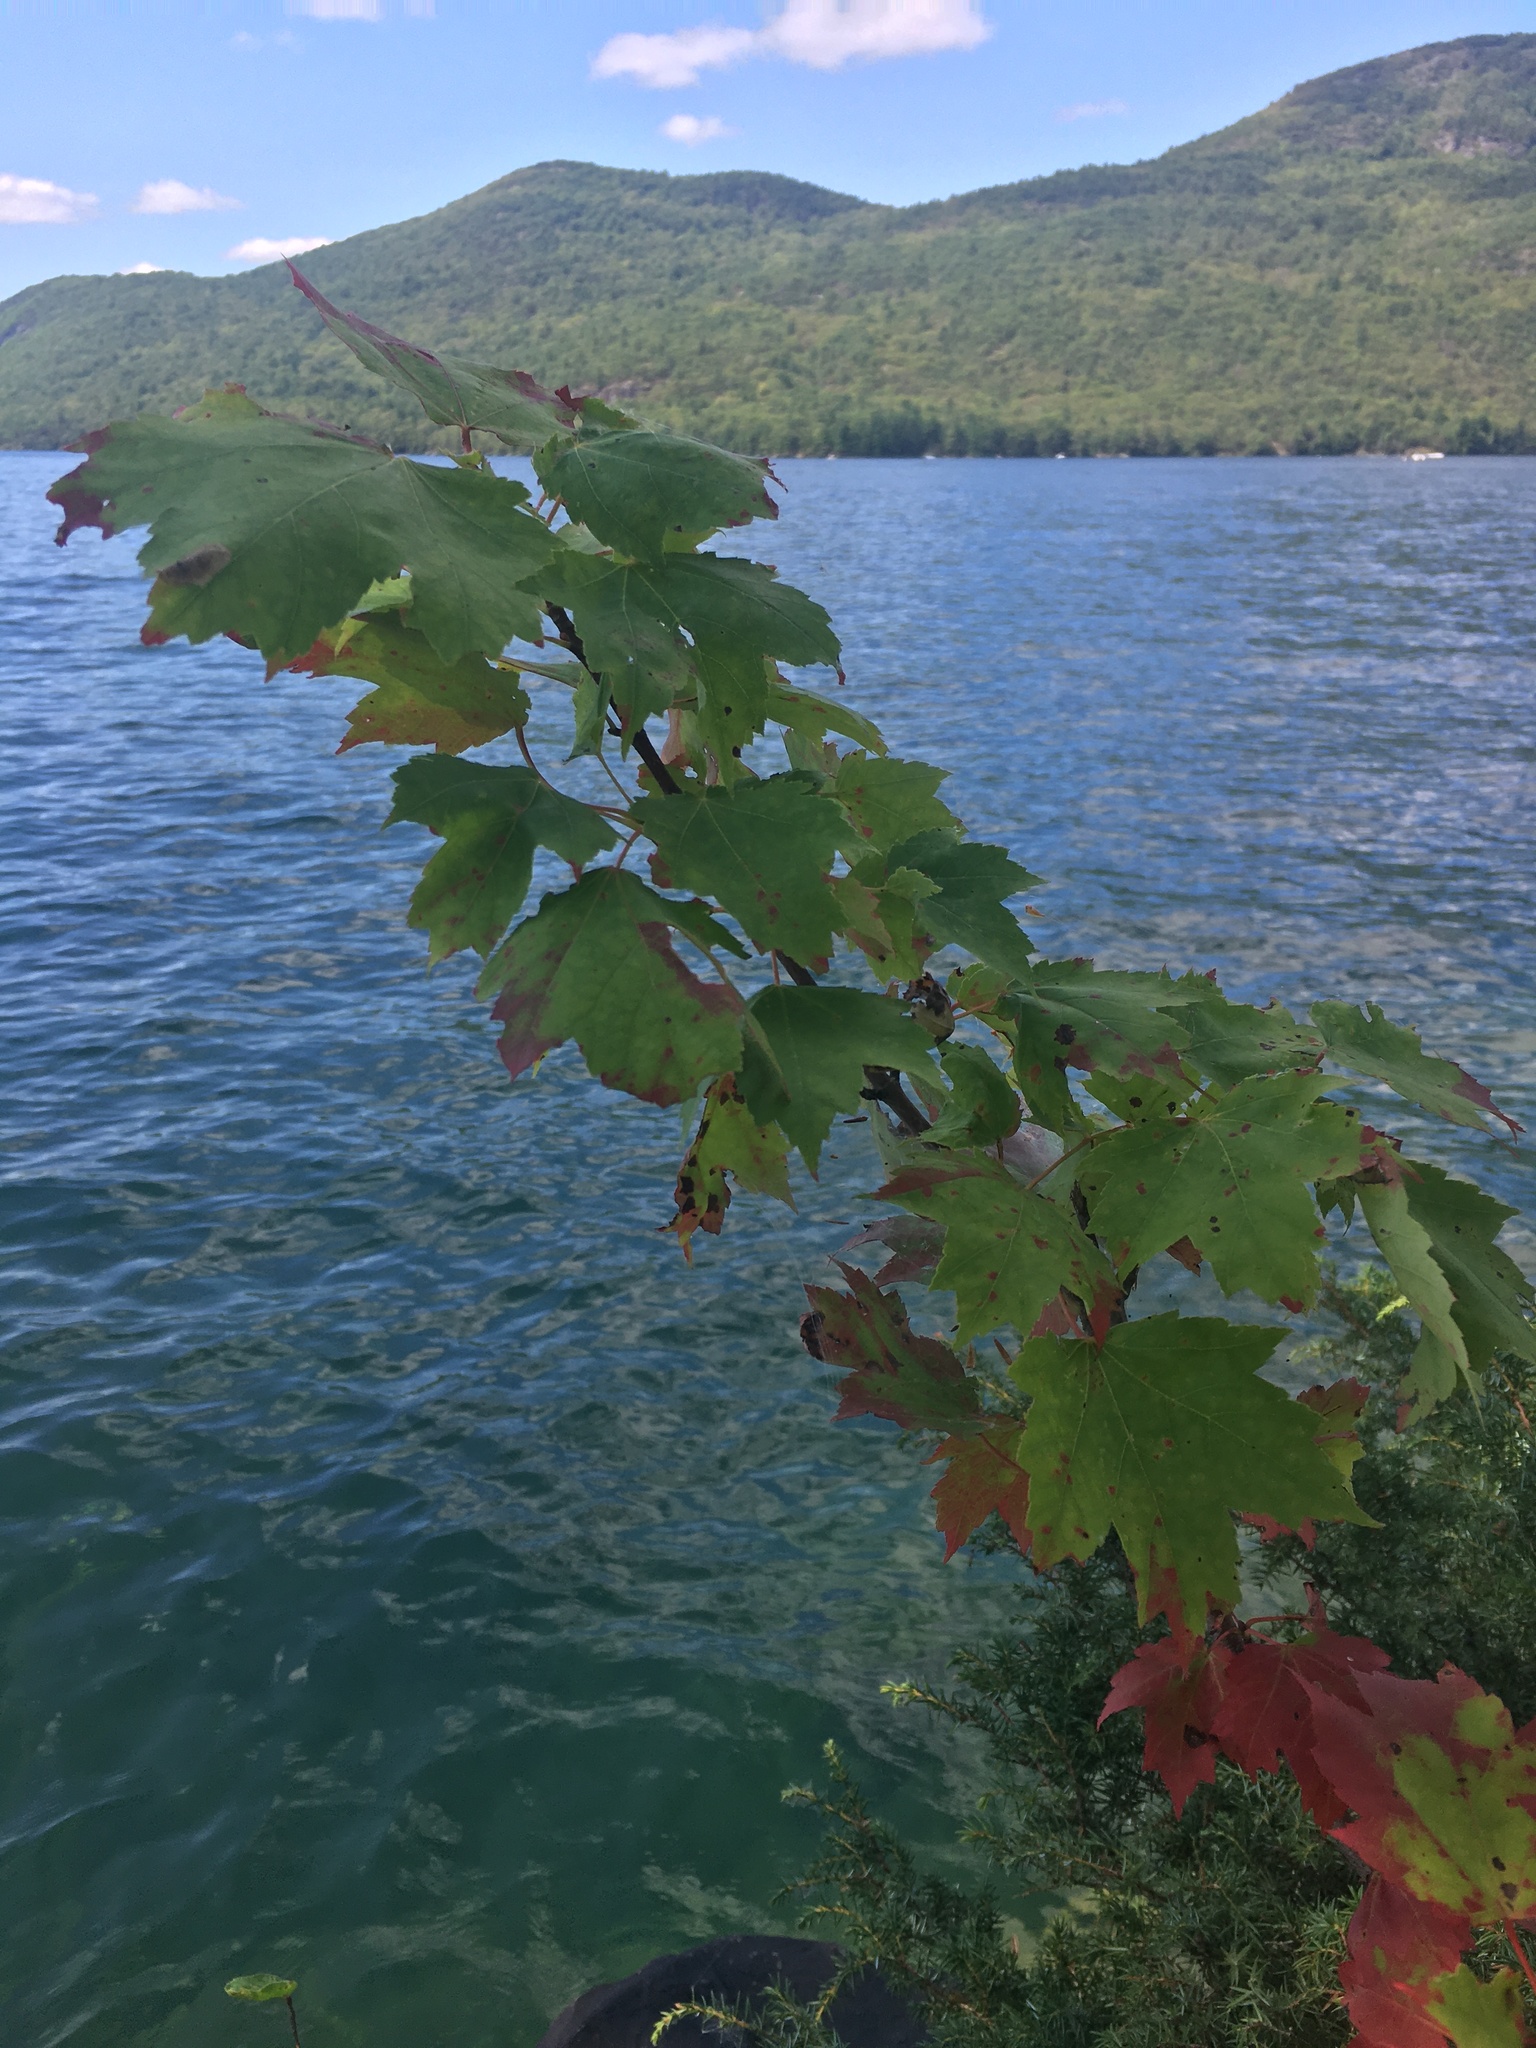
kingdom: Plantae
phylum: Tracheophyta
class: Magnoliopsida
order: Sapindales
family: Sapindaceae
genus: Acer
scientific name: Acer rubrum
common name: Red maple
